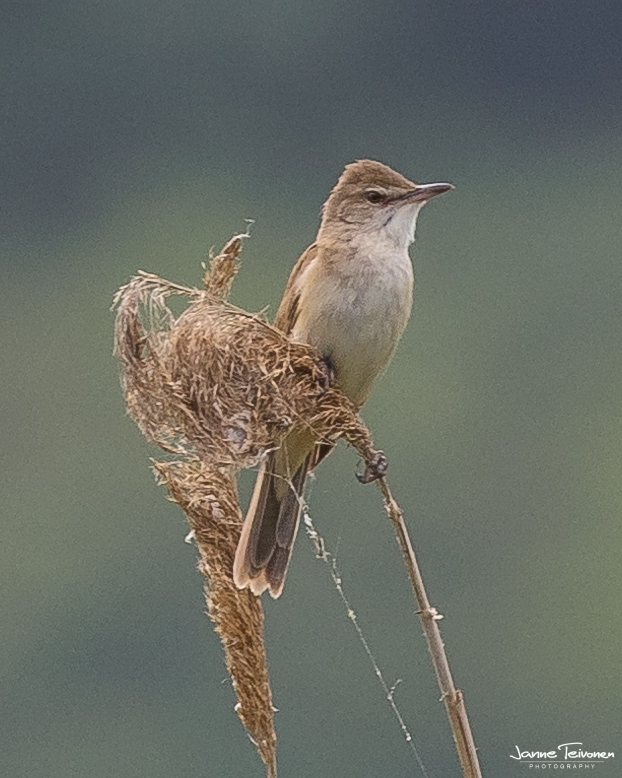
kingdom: Animalia
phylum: Chordata
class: Aves
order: Passeriformes
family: Acrocephalidae
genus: Acrocephalus
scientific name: Acrocephalus arundinaceus
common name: Great reed warbler
